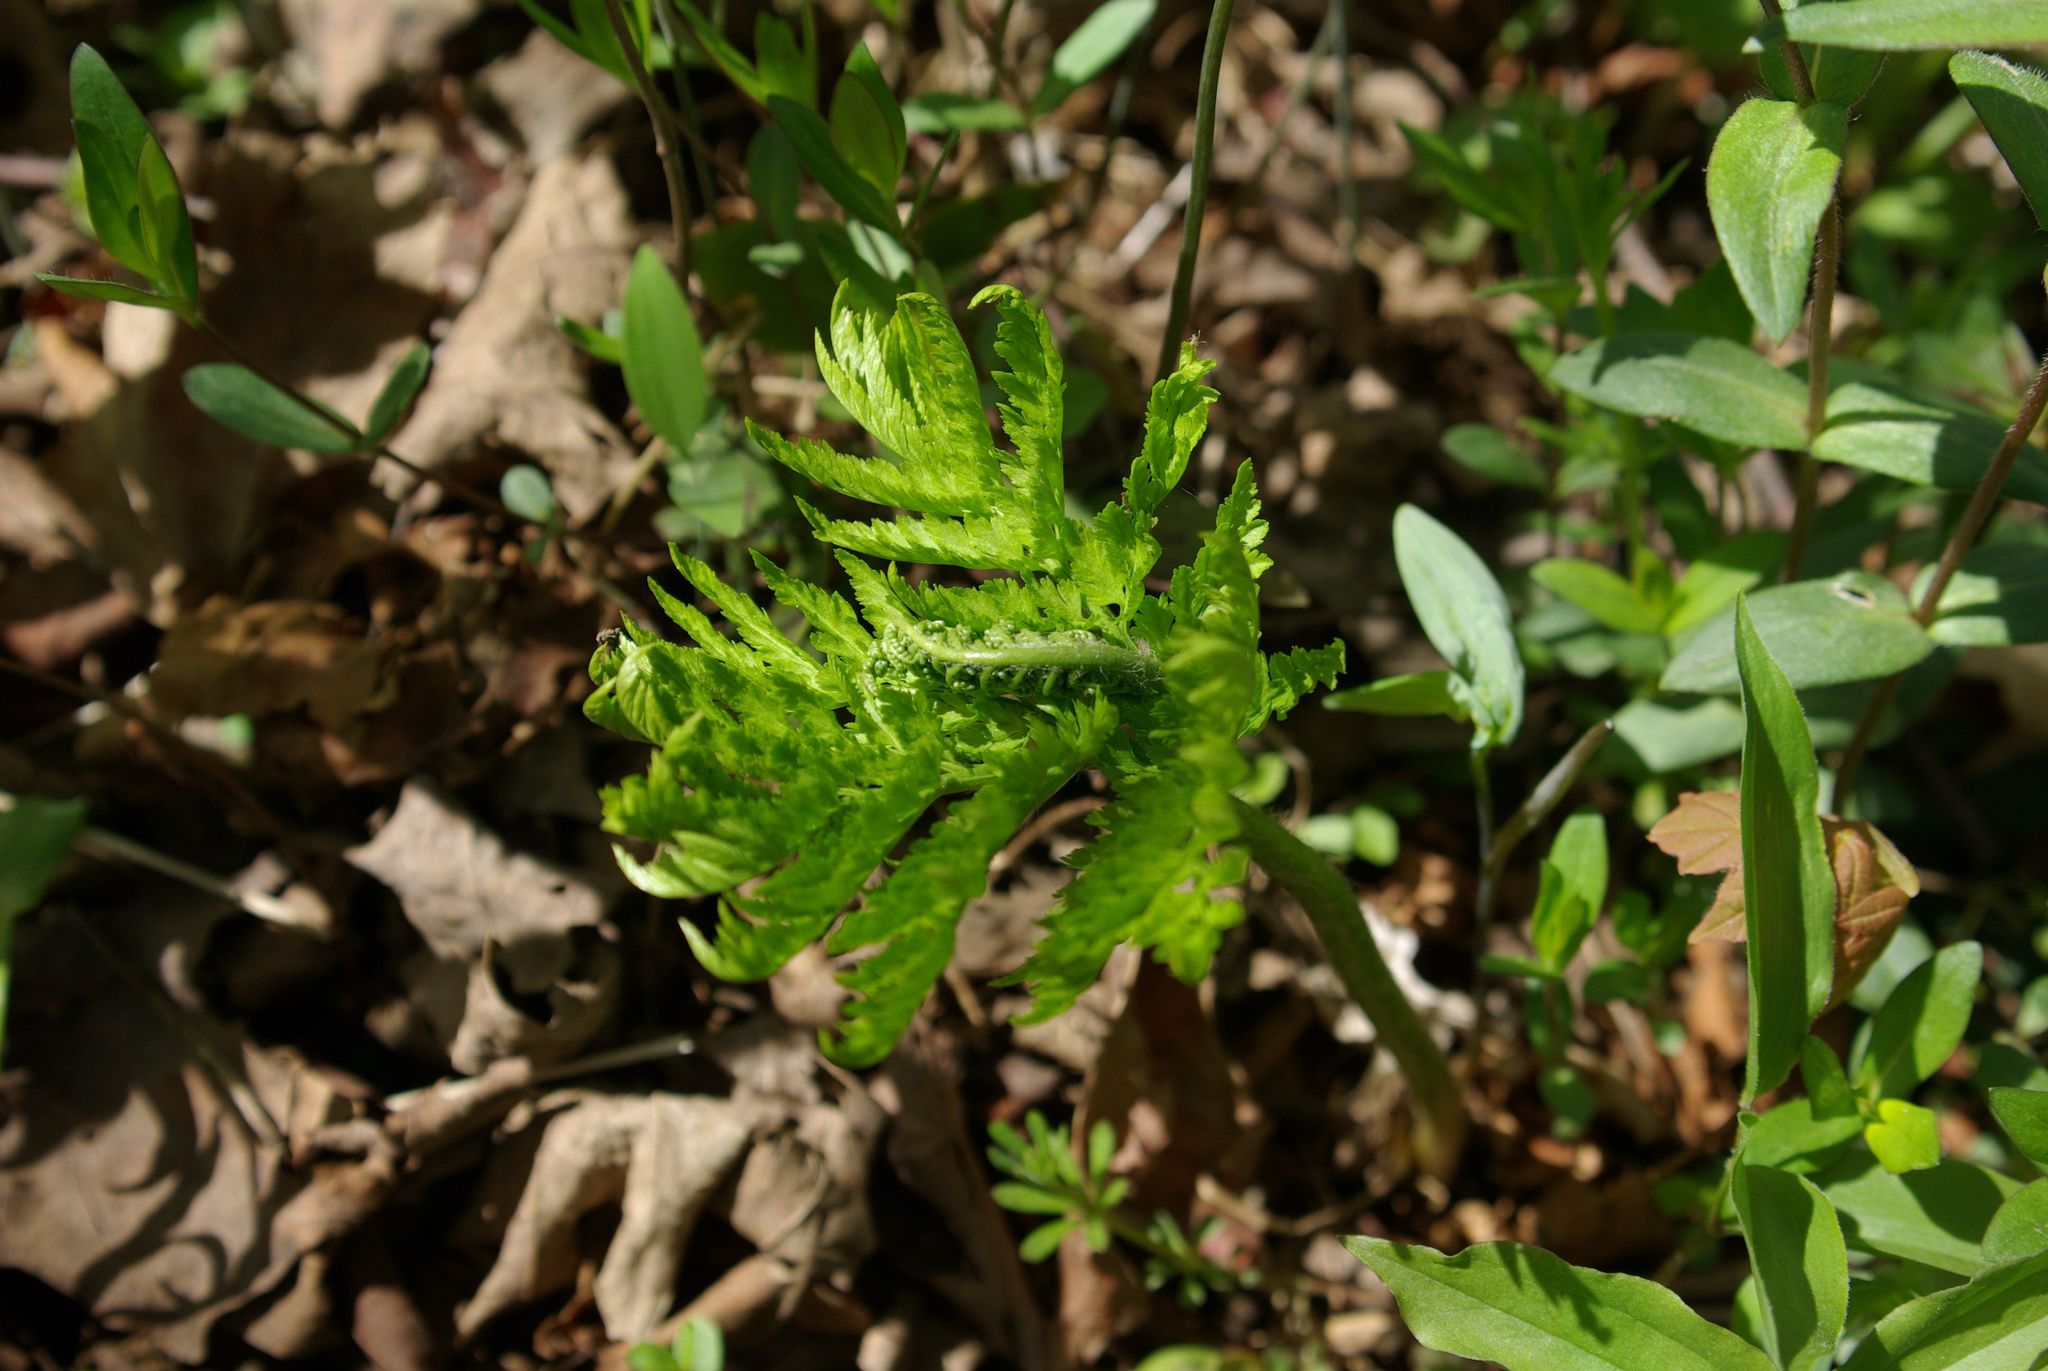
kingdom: Plantae
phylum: Tracheophyta
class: Polypodiopsida
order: Ophioglossales
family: Ophioglossaceae
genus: Botrypus
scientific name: Botrypus virginianus
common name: Common grapefern
